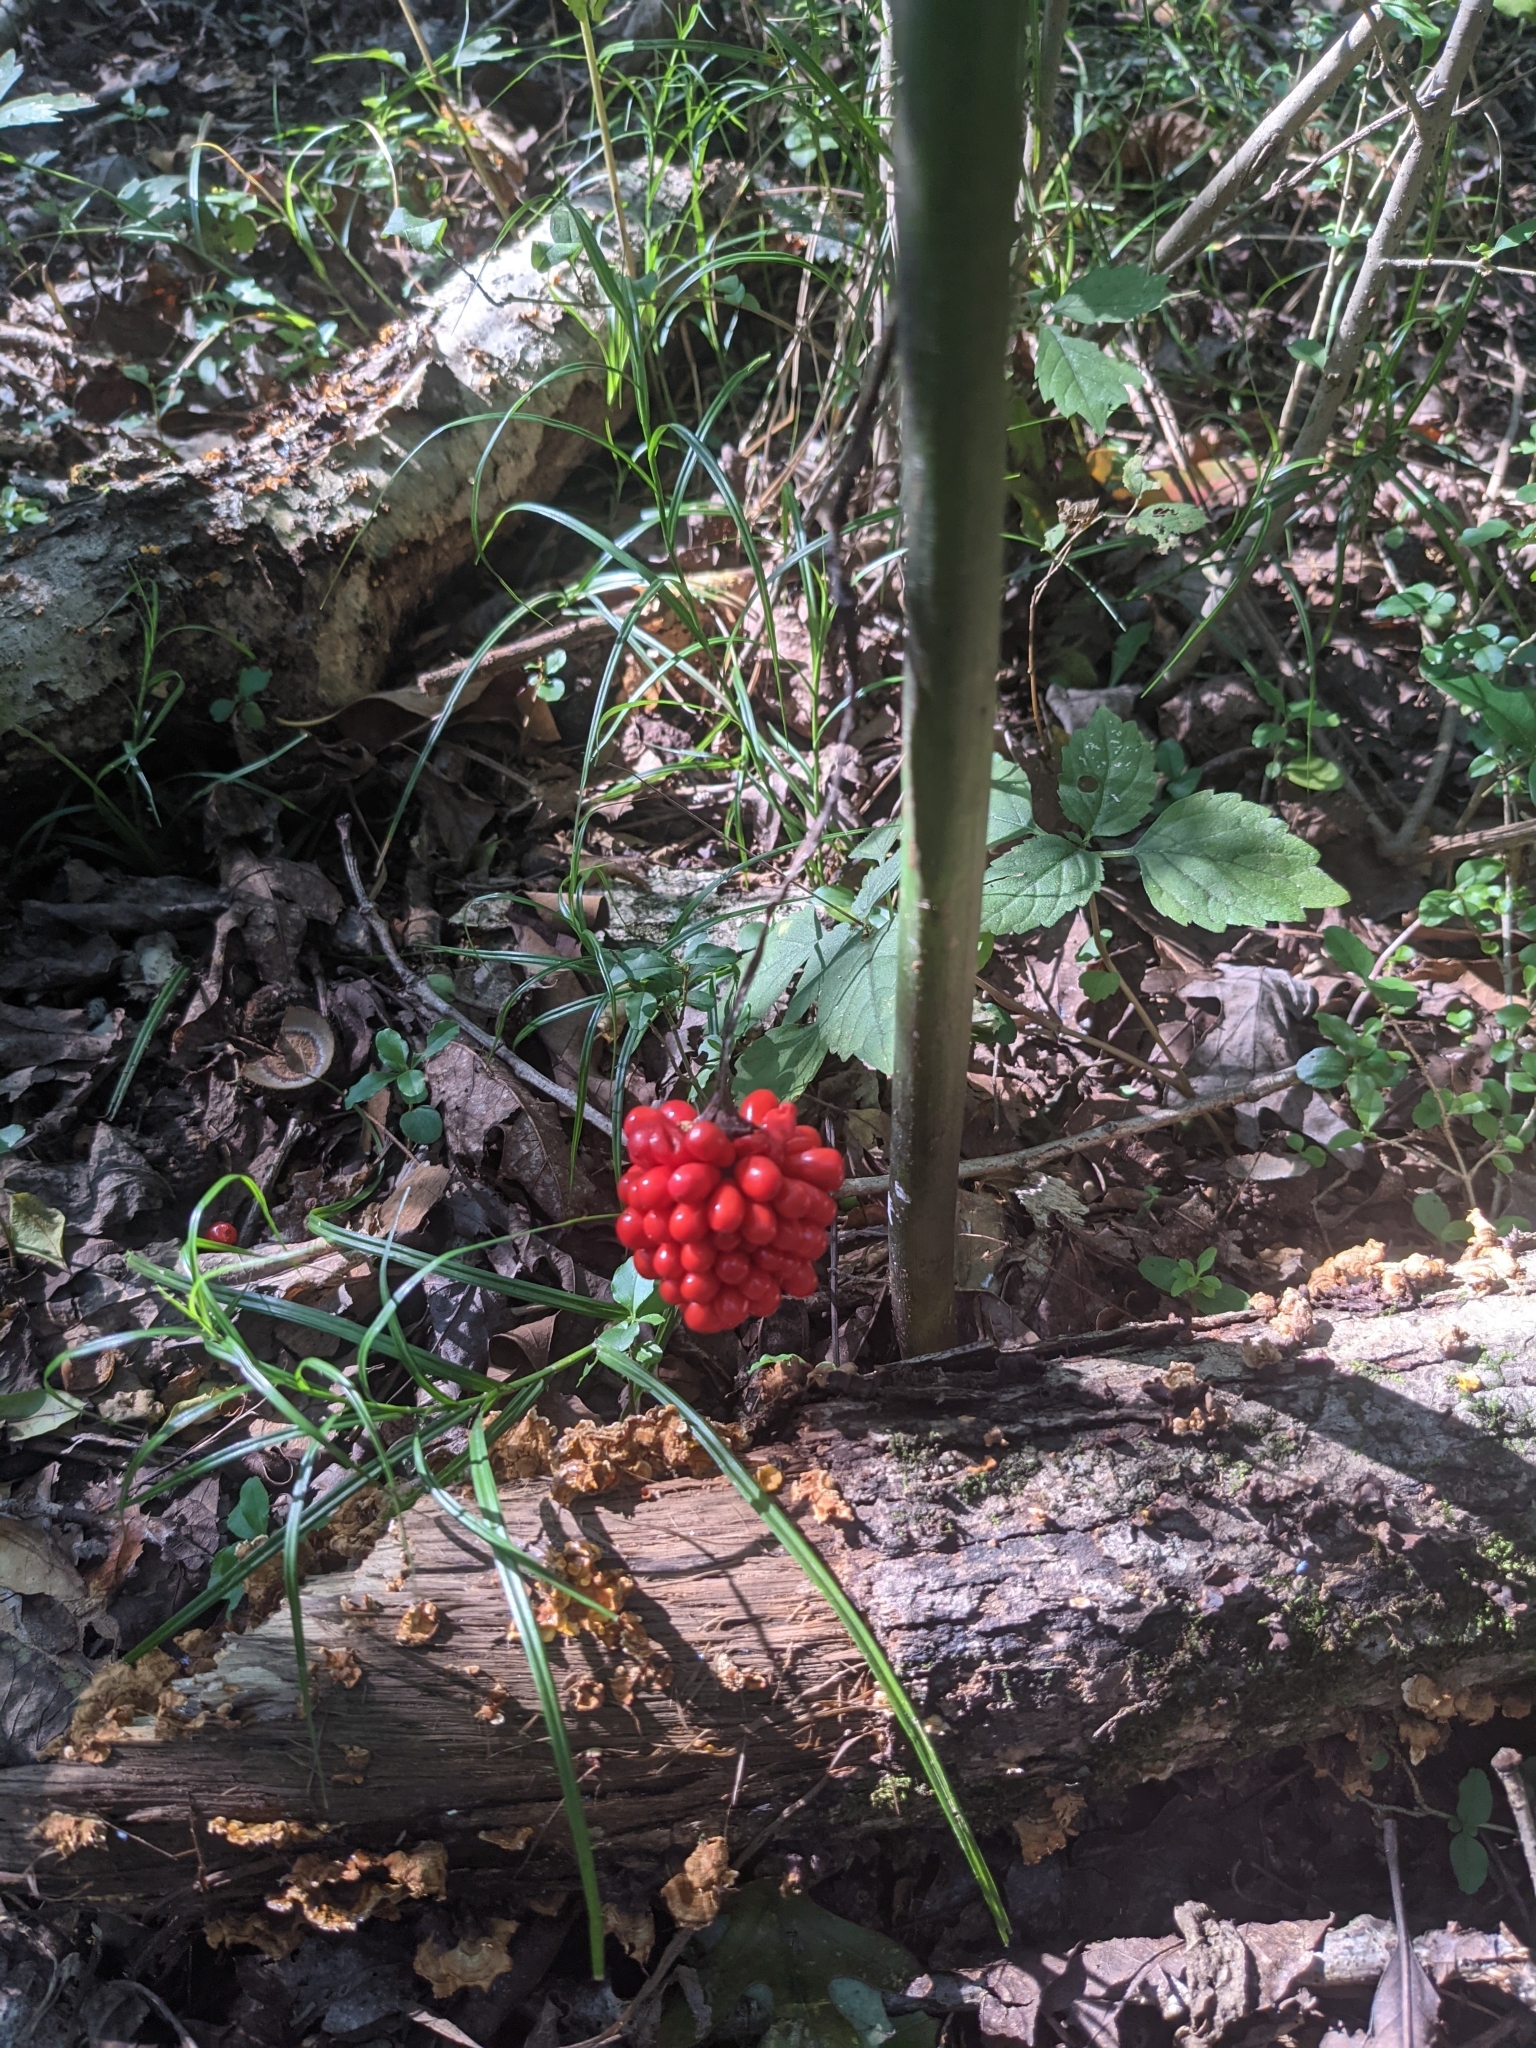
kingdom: Plantae
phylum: Tracheophyta
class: Liliopsida
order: Alismatales
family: Araceae
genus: Arisaema
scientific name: Arisaema dracontium
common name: Dragon-arum
